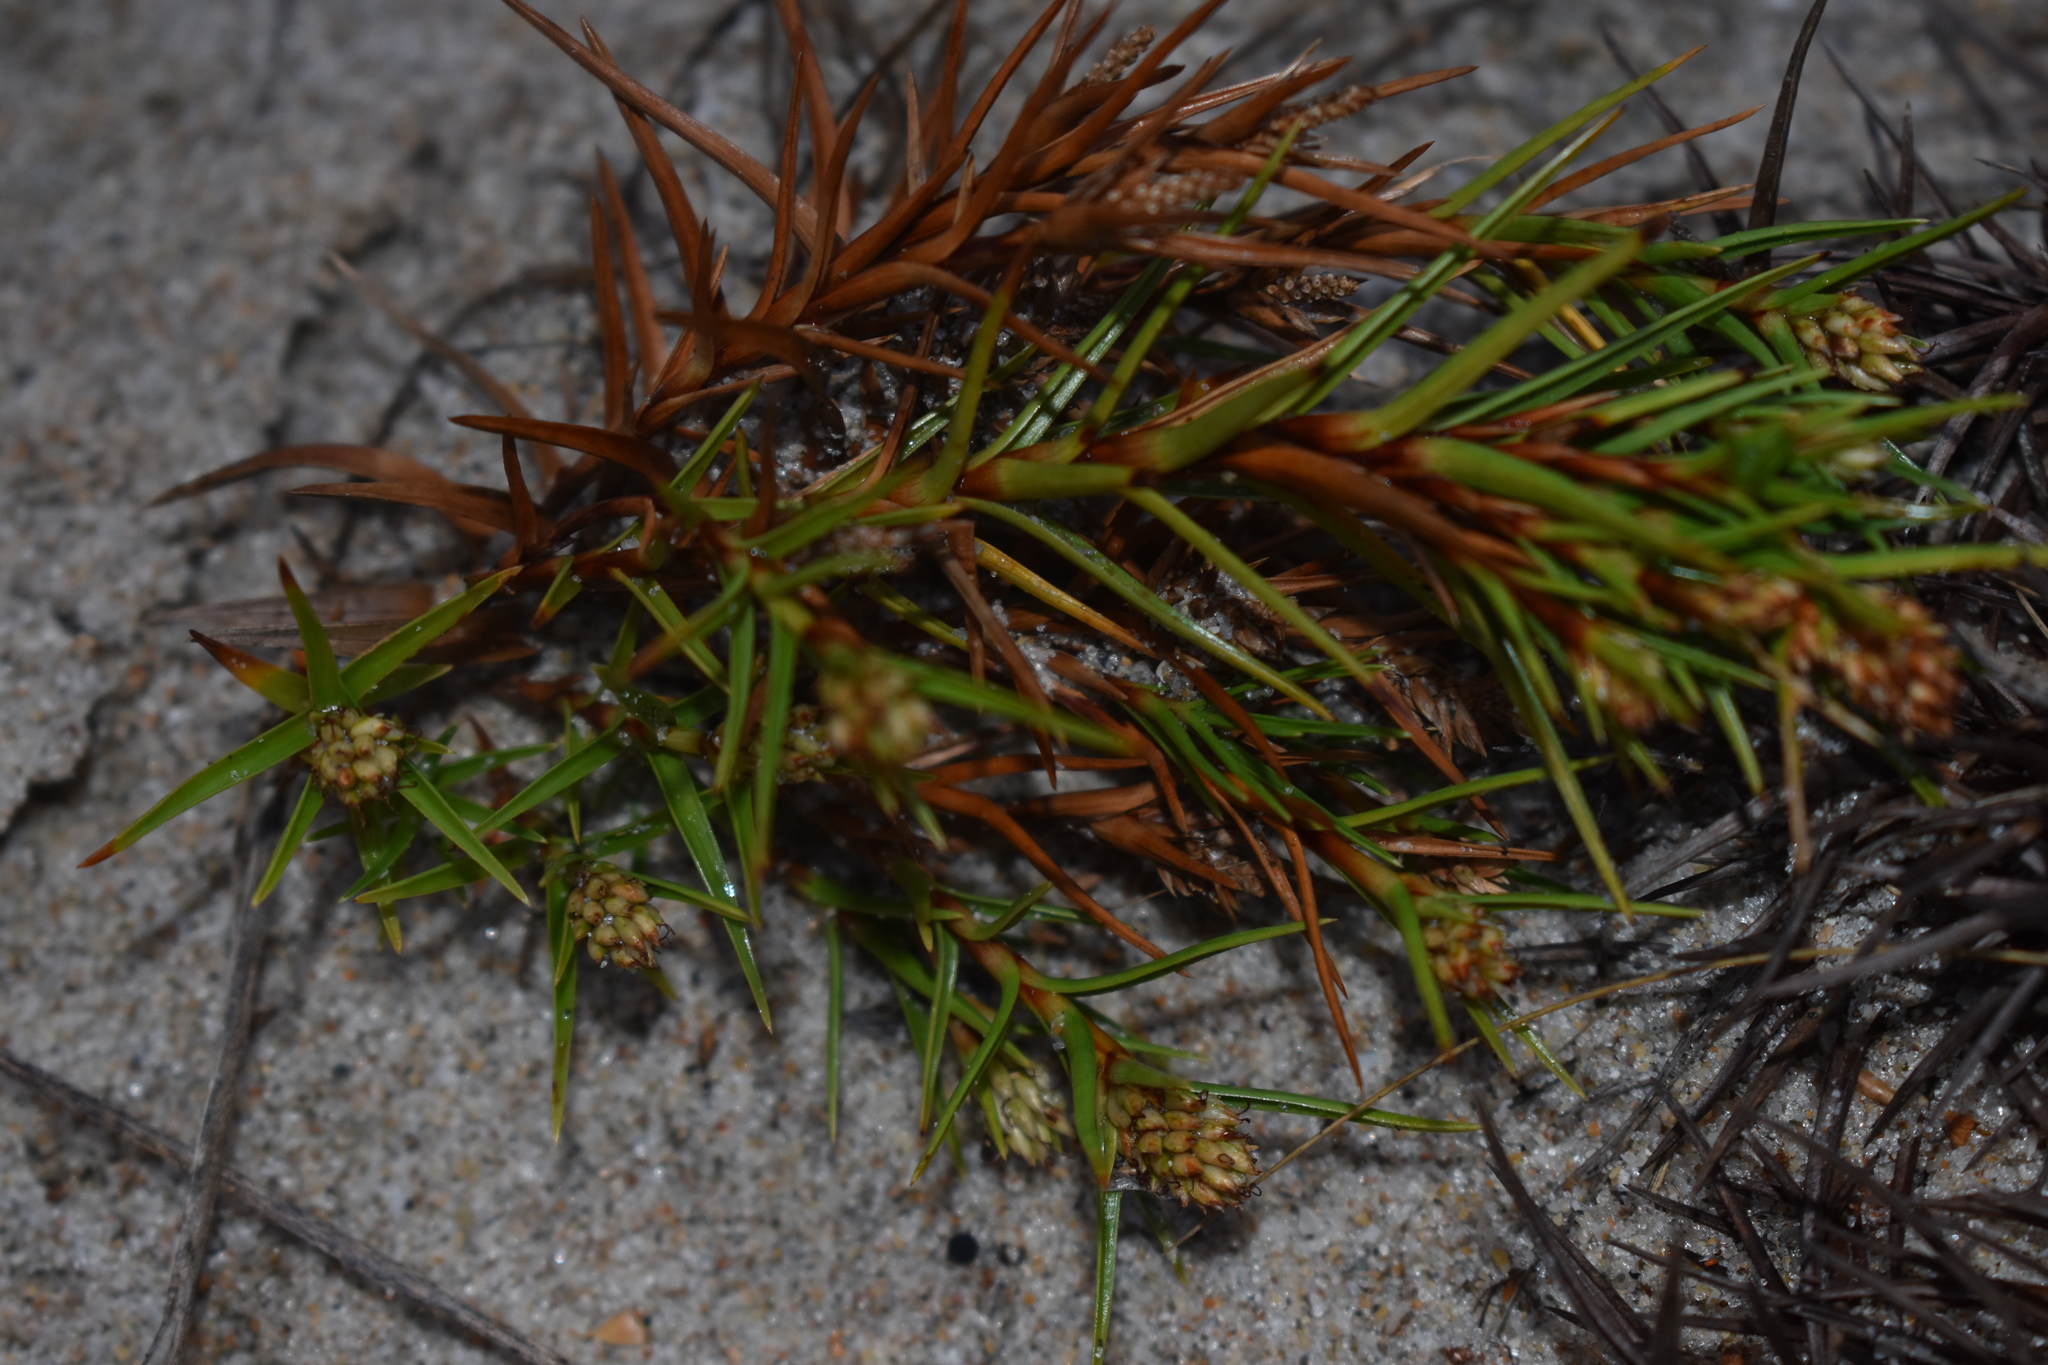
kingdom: Plantae
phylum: Tracheophyta
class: Liliopsida
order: Poales
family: Cyperaceae
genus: Cyperus
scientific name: Cyperus pedunculatus
